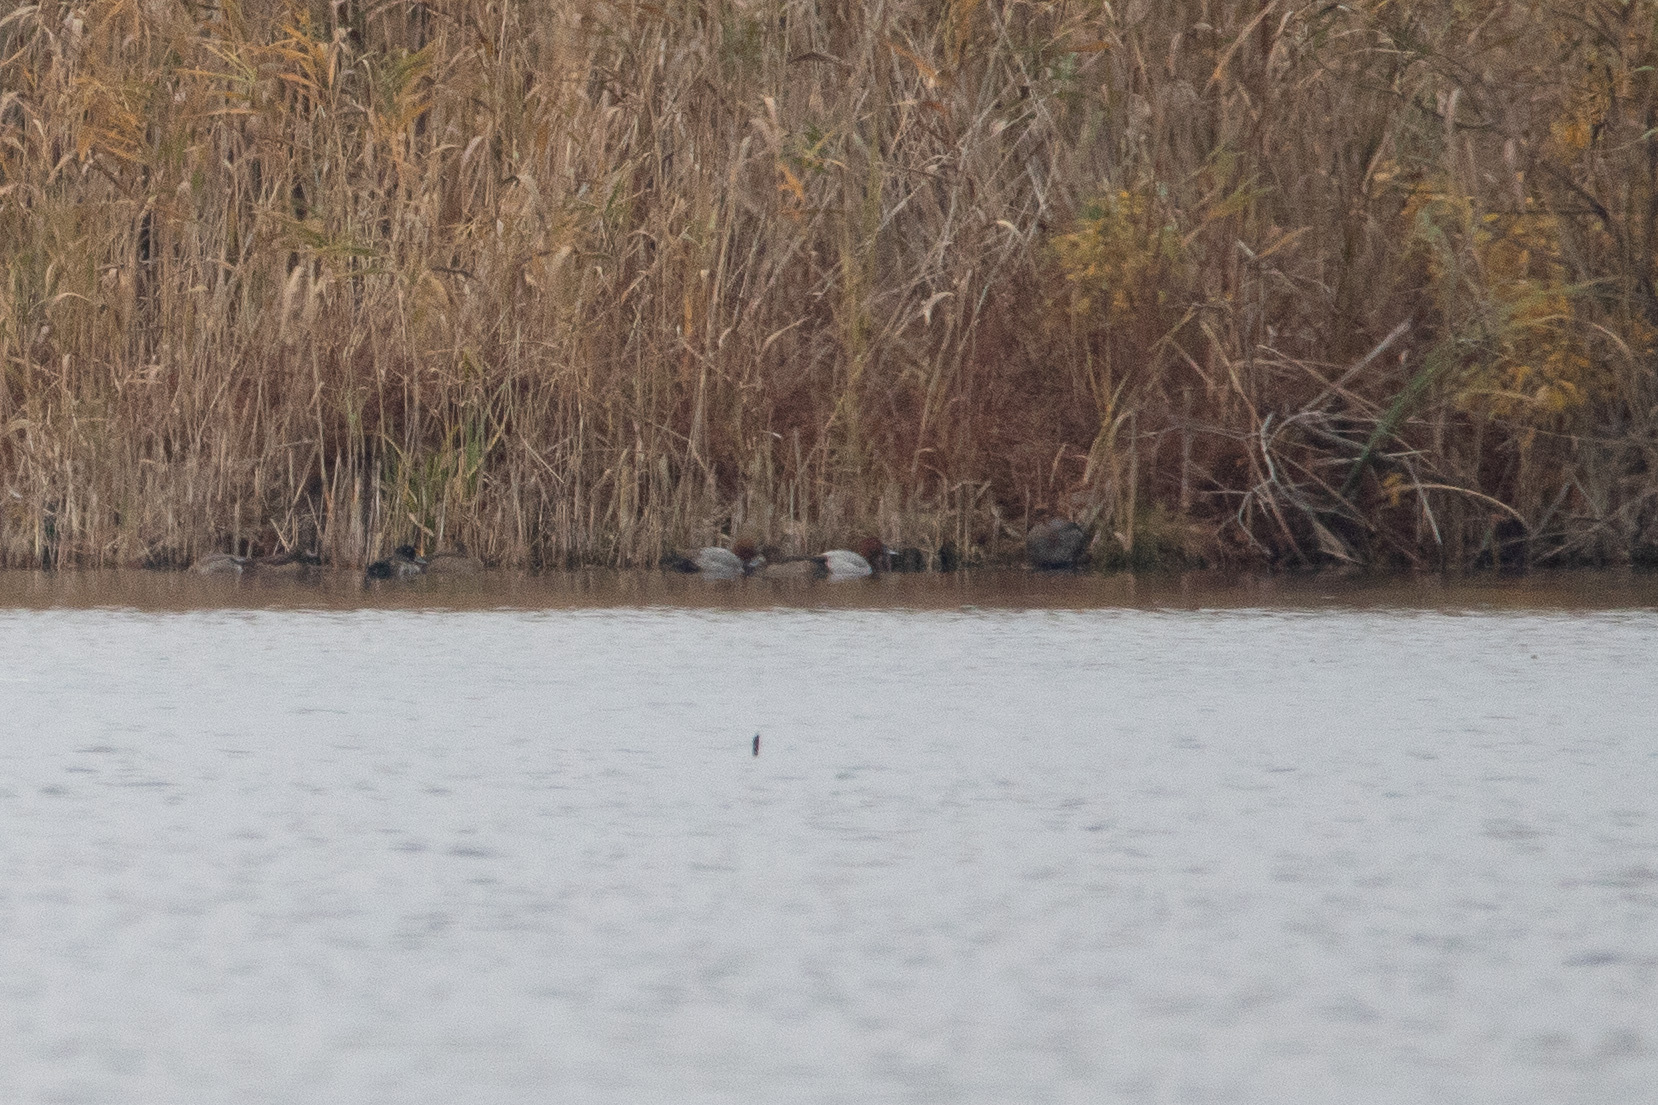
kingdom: Animalia
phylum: Chordata
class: Aves
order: Anseriformes
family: Anatidae
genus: Aythya
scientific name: Aythya ferina
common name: Common pochard
